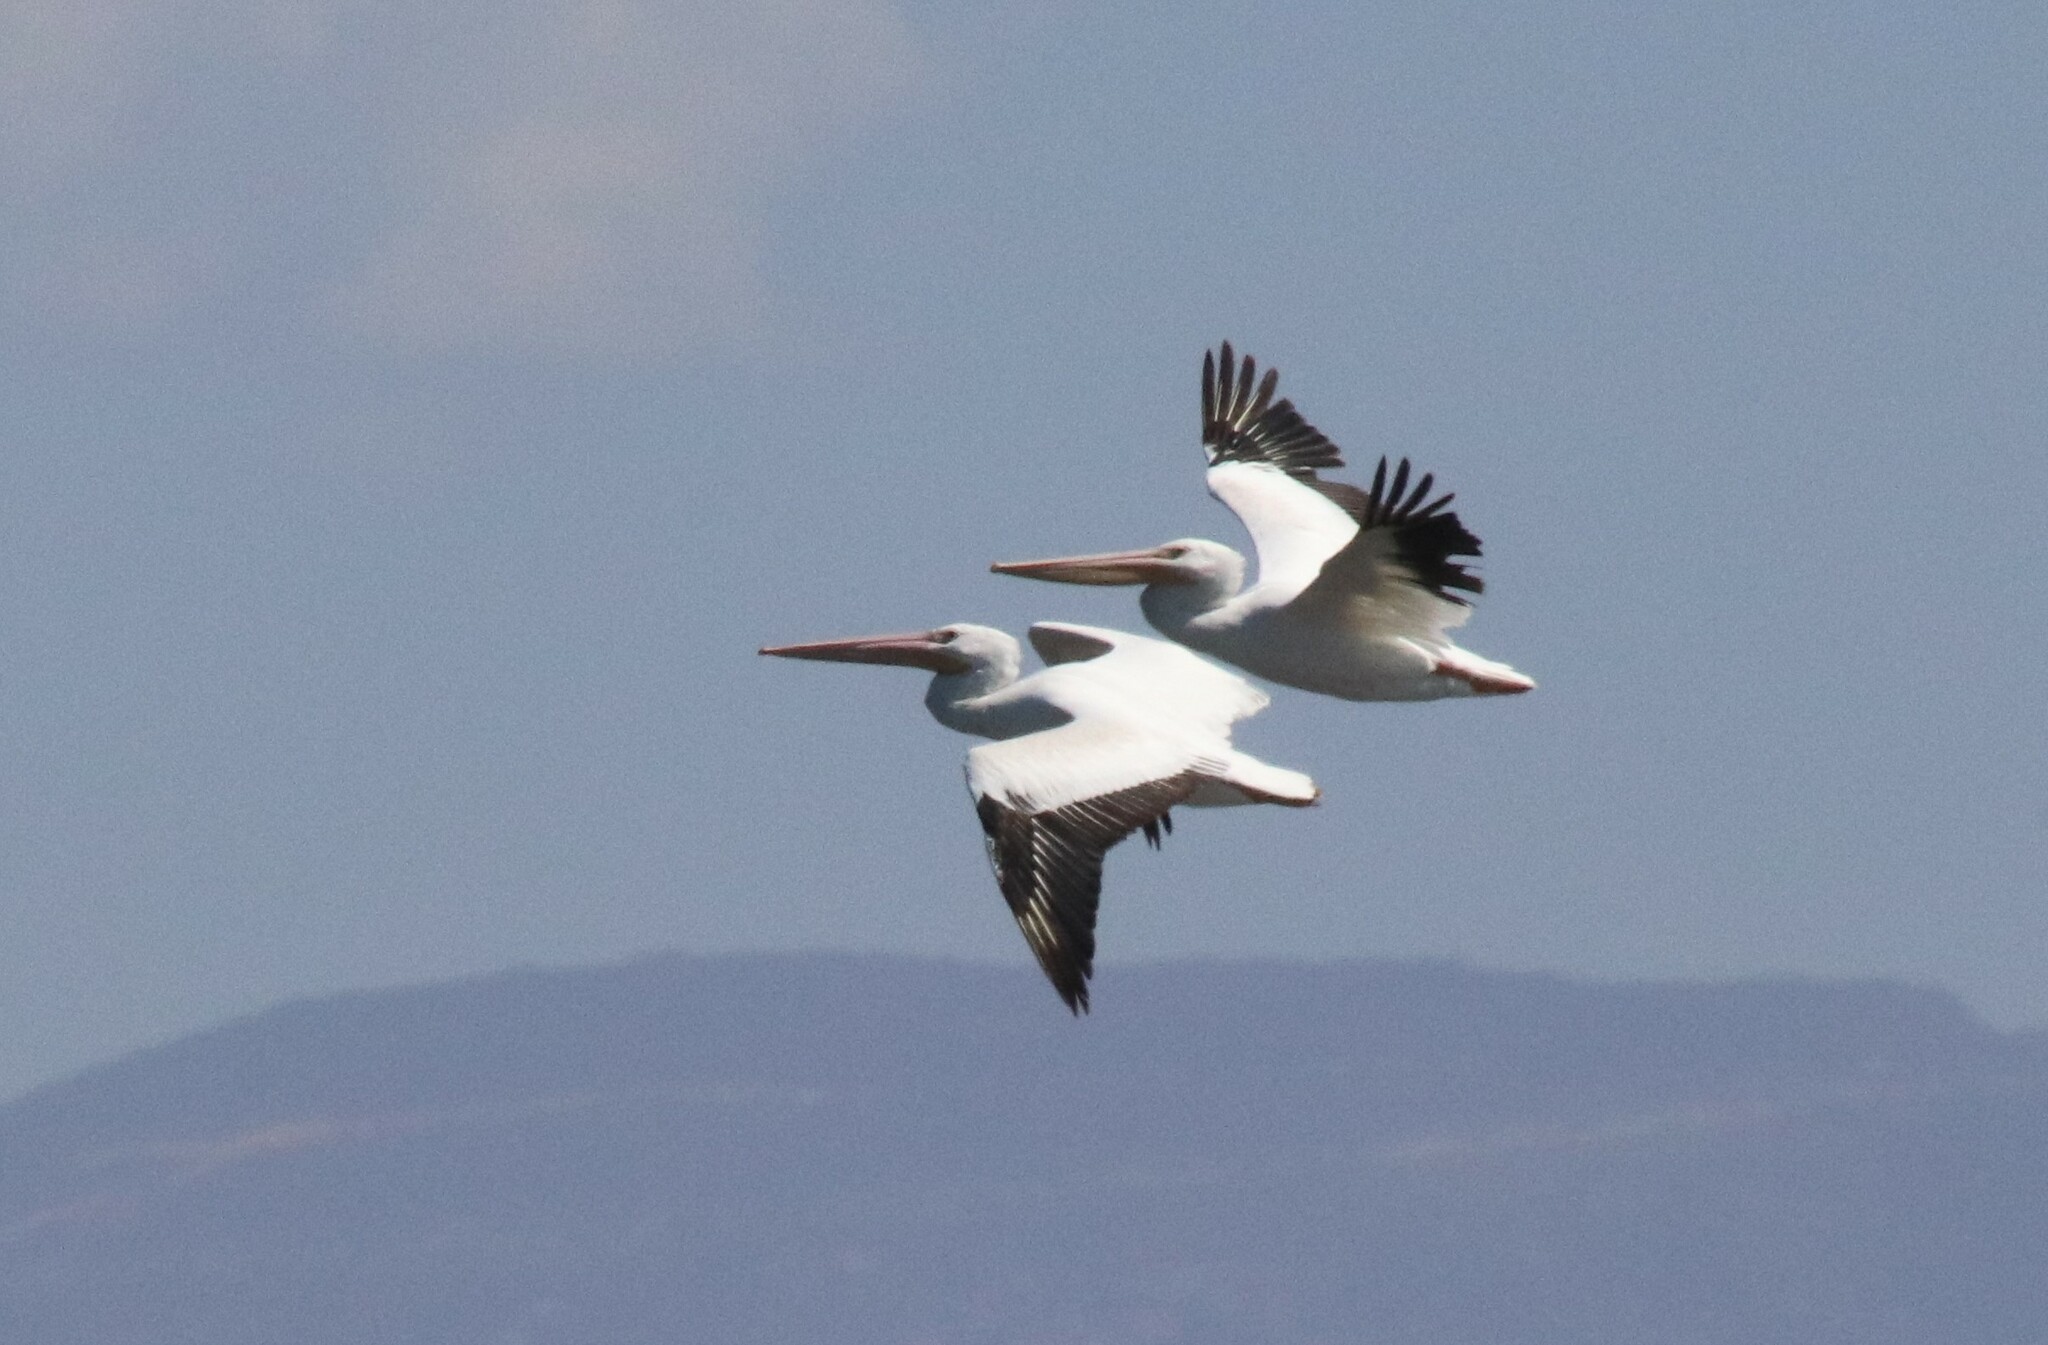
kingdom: Animalia
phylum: Chordata
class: Aves
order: Pelecaniformes
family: Pelecanidae
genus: Pelecanus
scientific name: Pelecanus erythrorhynchos
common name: American white pelican
